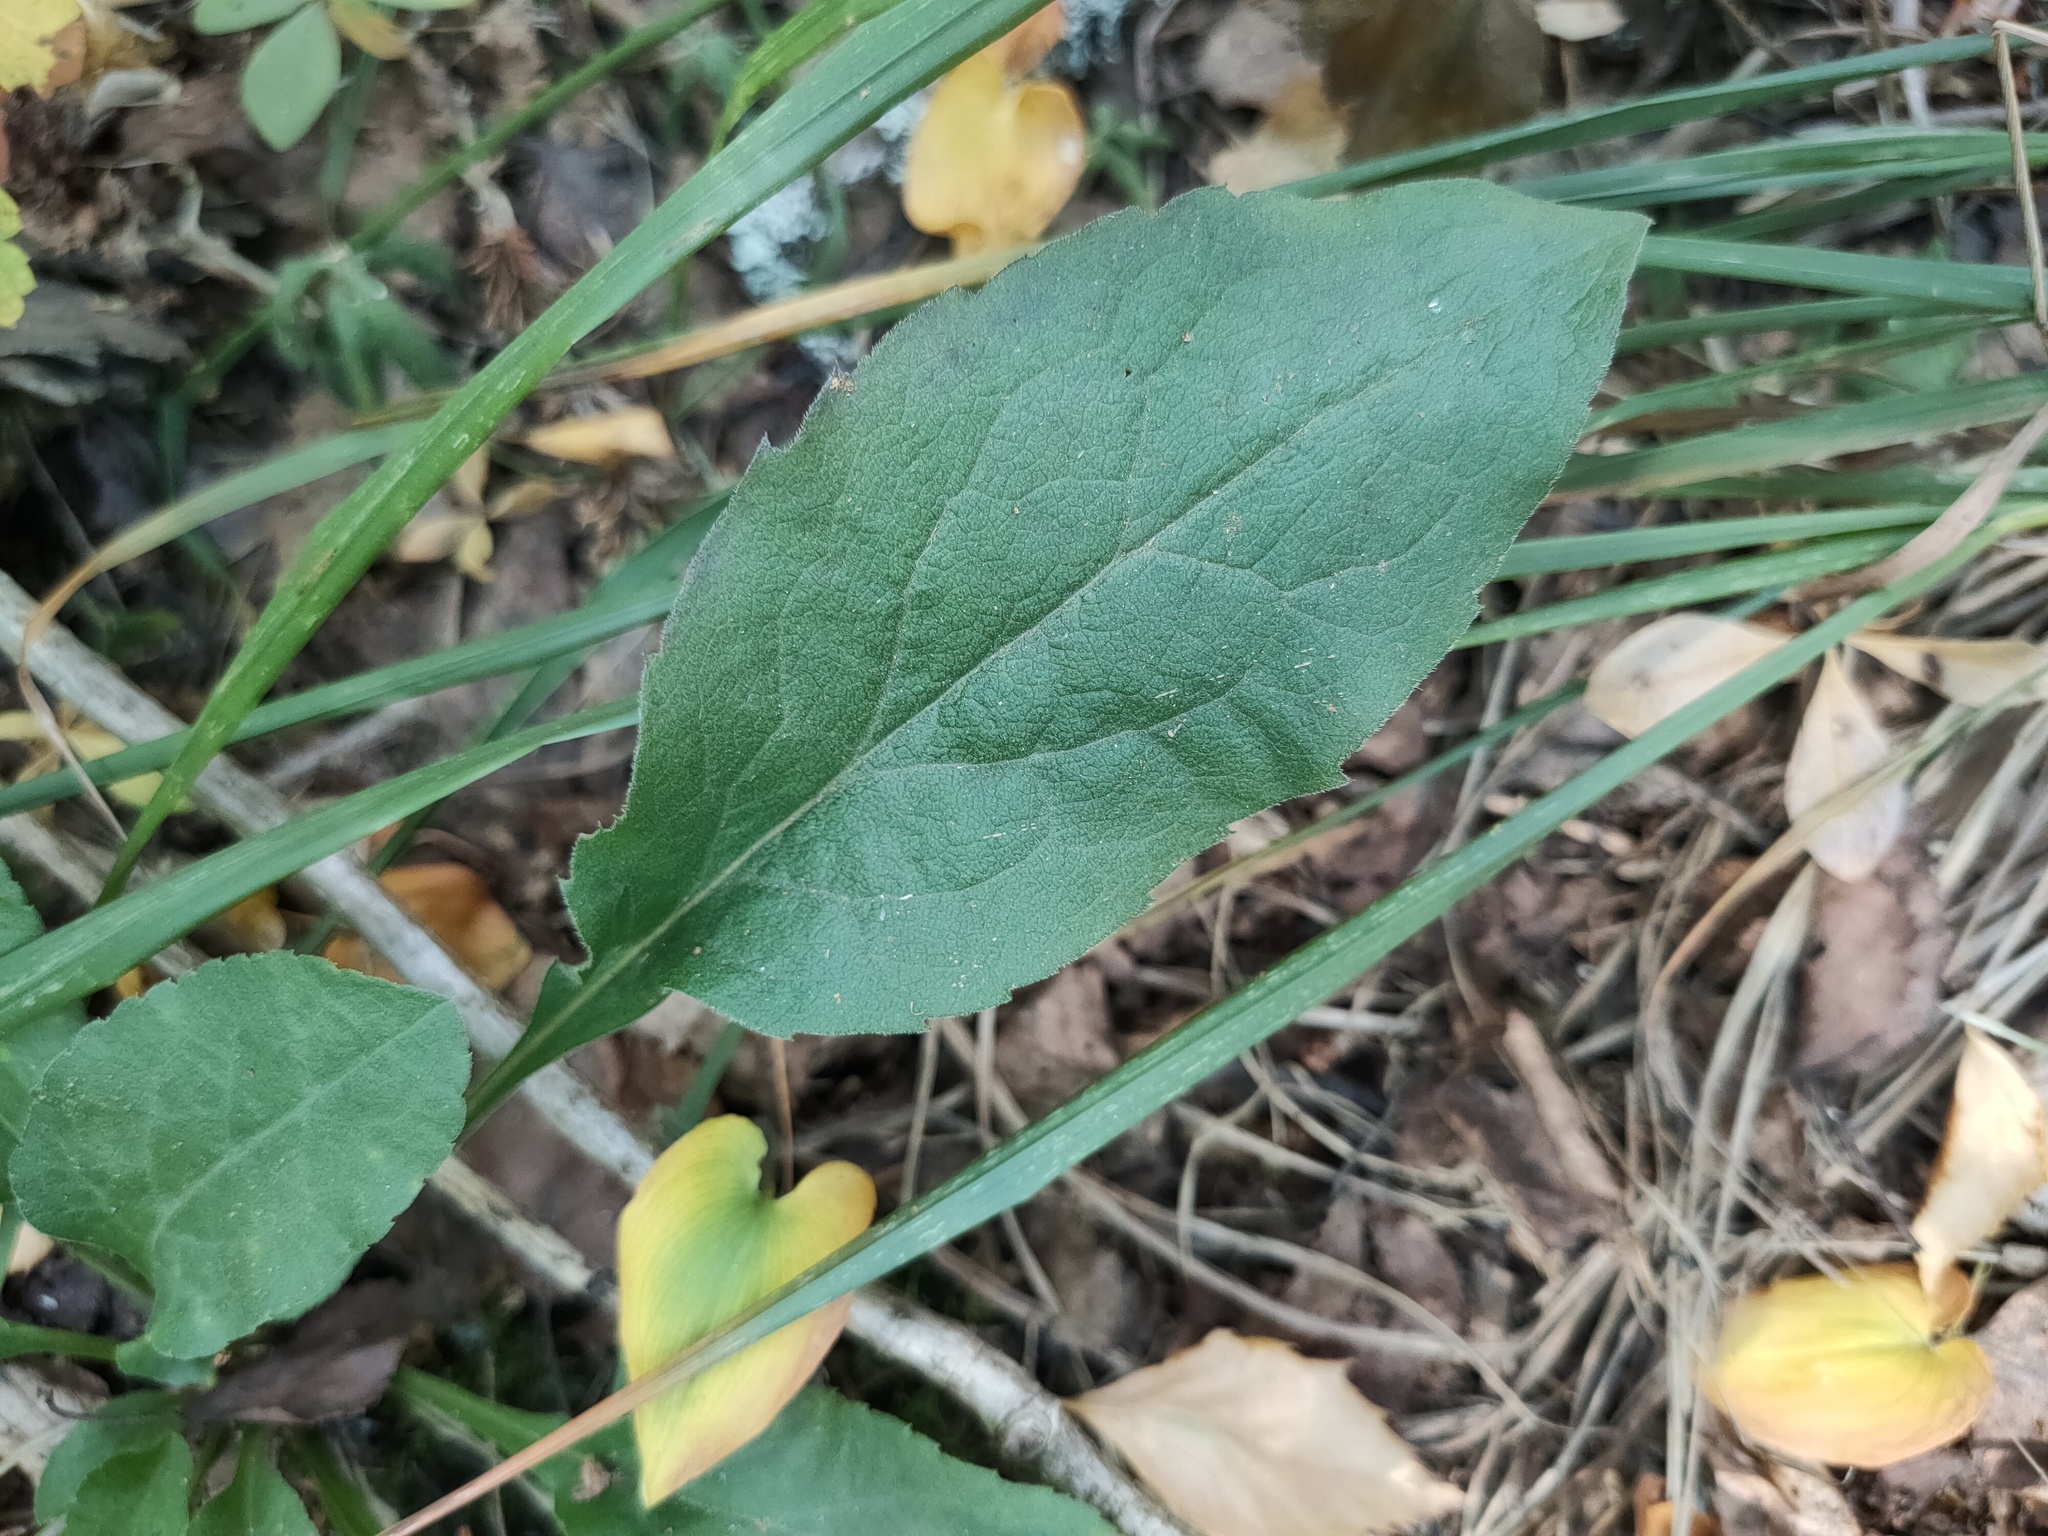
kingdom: Plantae
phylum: Tracheophyta
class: Magnoliopsida
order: Asterales
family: Asteraceae
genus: Solidago
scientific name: Solidago virgaurea
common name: Goldenrod
